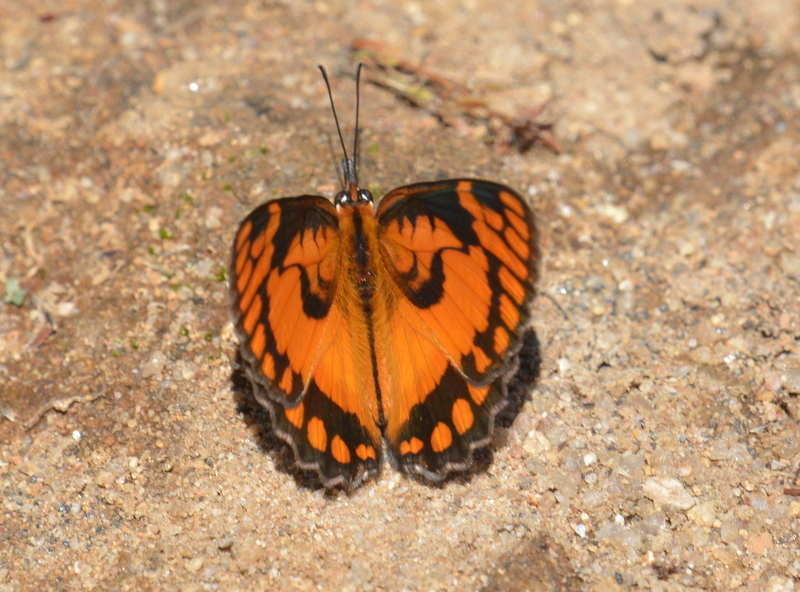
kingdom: Animalia
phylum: Arthropoda
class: Insecta
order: Lepidoptera
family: Nymphalidae
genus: Byblia
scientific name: Byblia acheloia
